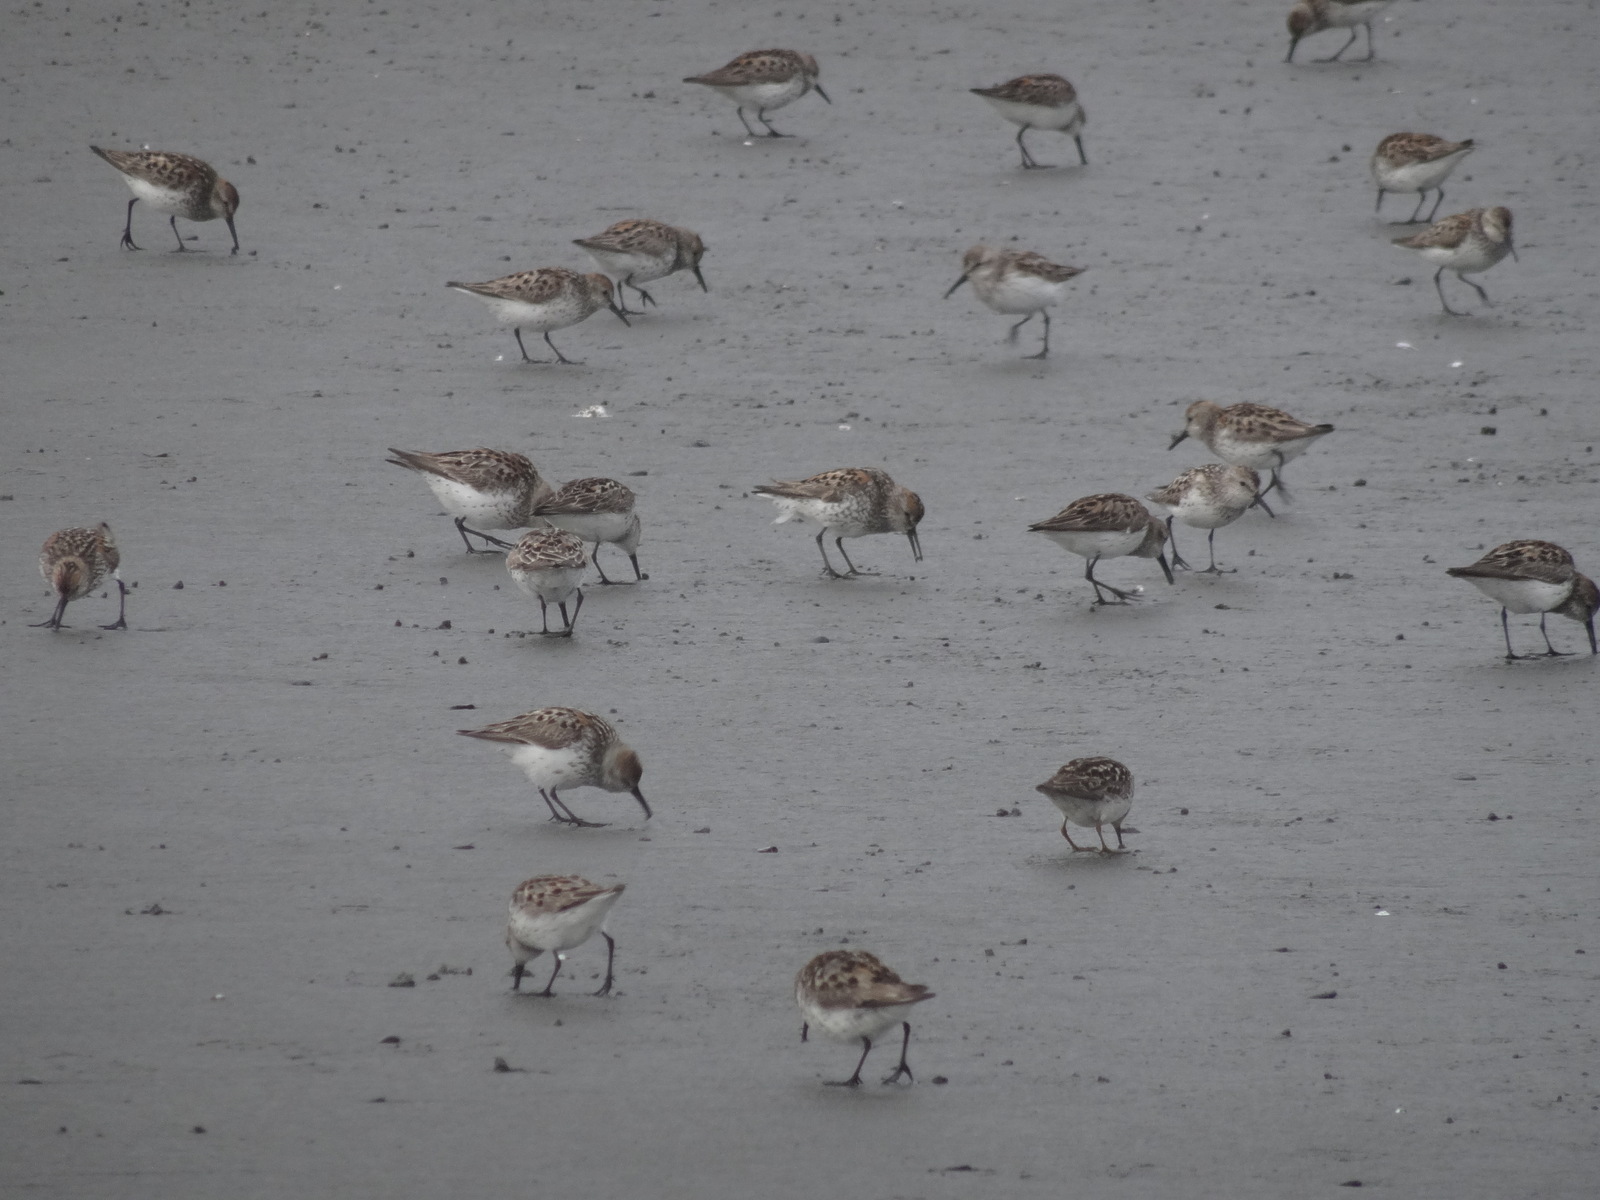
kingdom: Animalia
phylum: Chordata
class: Aves
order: Charadriiformes
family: Scolopacidae
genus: Calidris
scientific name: Calidris mauri
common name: Western sandpiper
